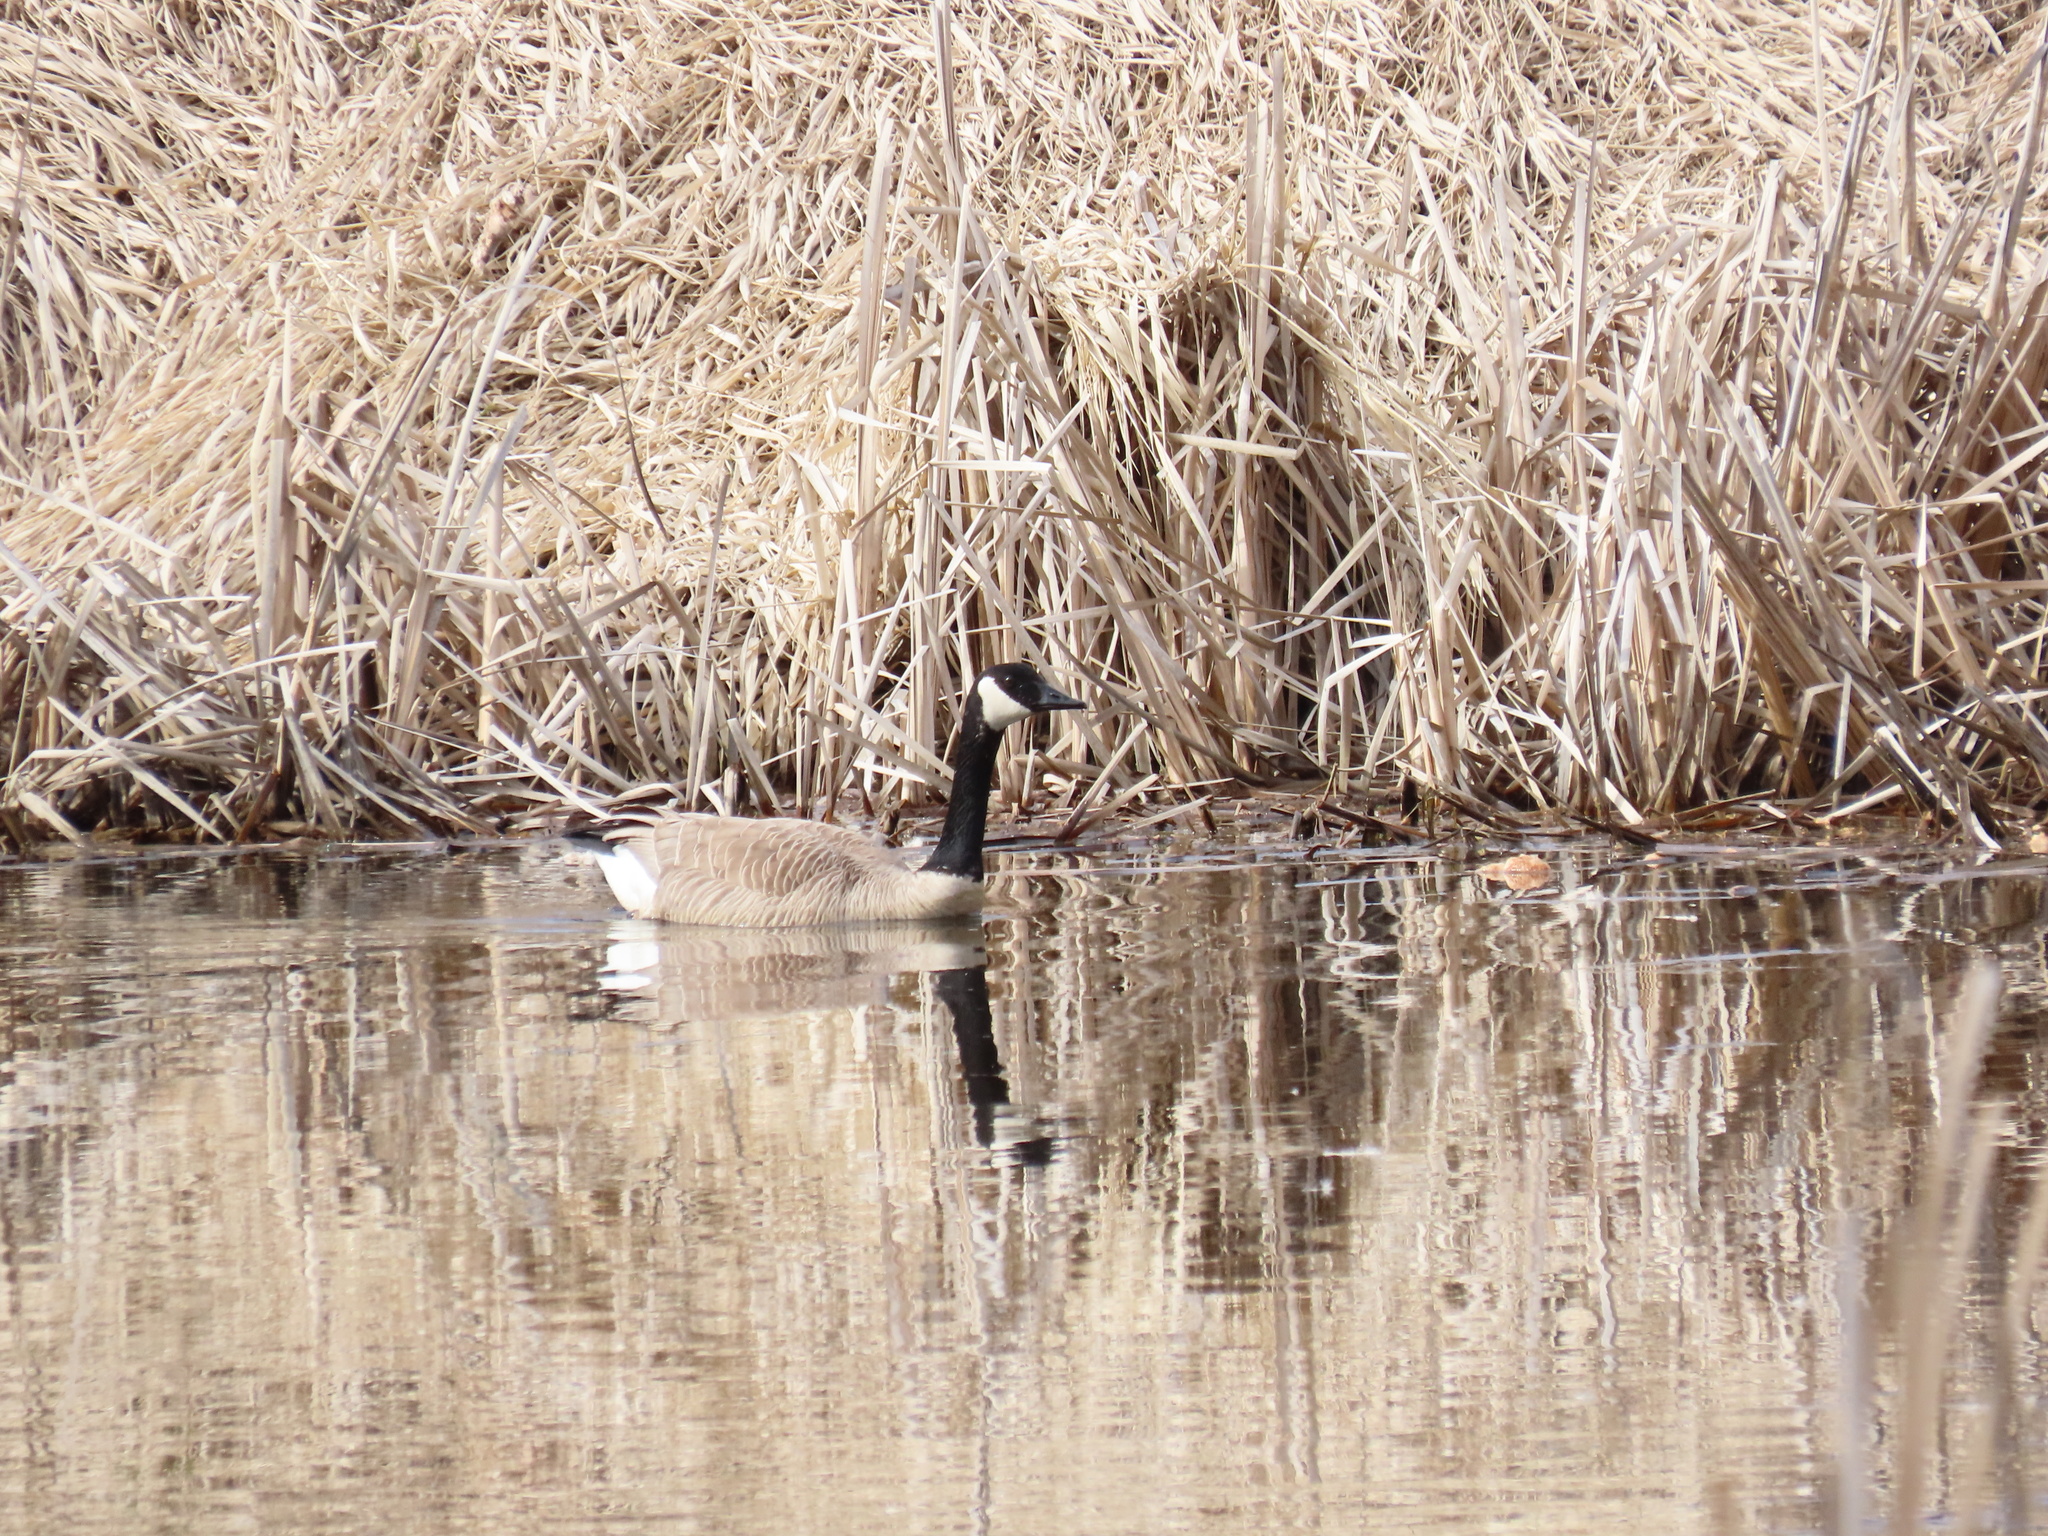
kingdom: Animalia
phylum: Chordata
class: Aves
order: Anseriformes
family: Anatidae
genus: Branta
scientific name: Branta canadensis
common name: Canada goose
